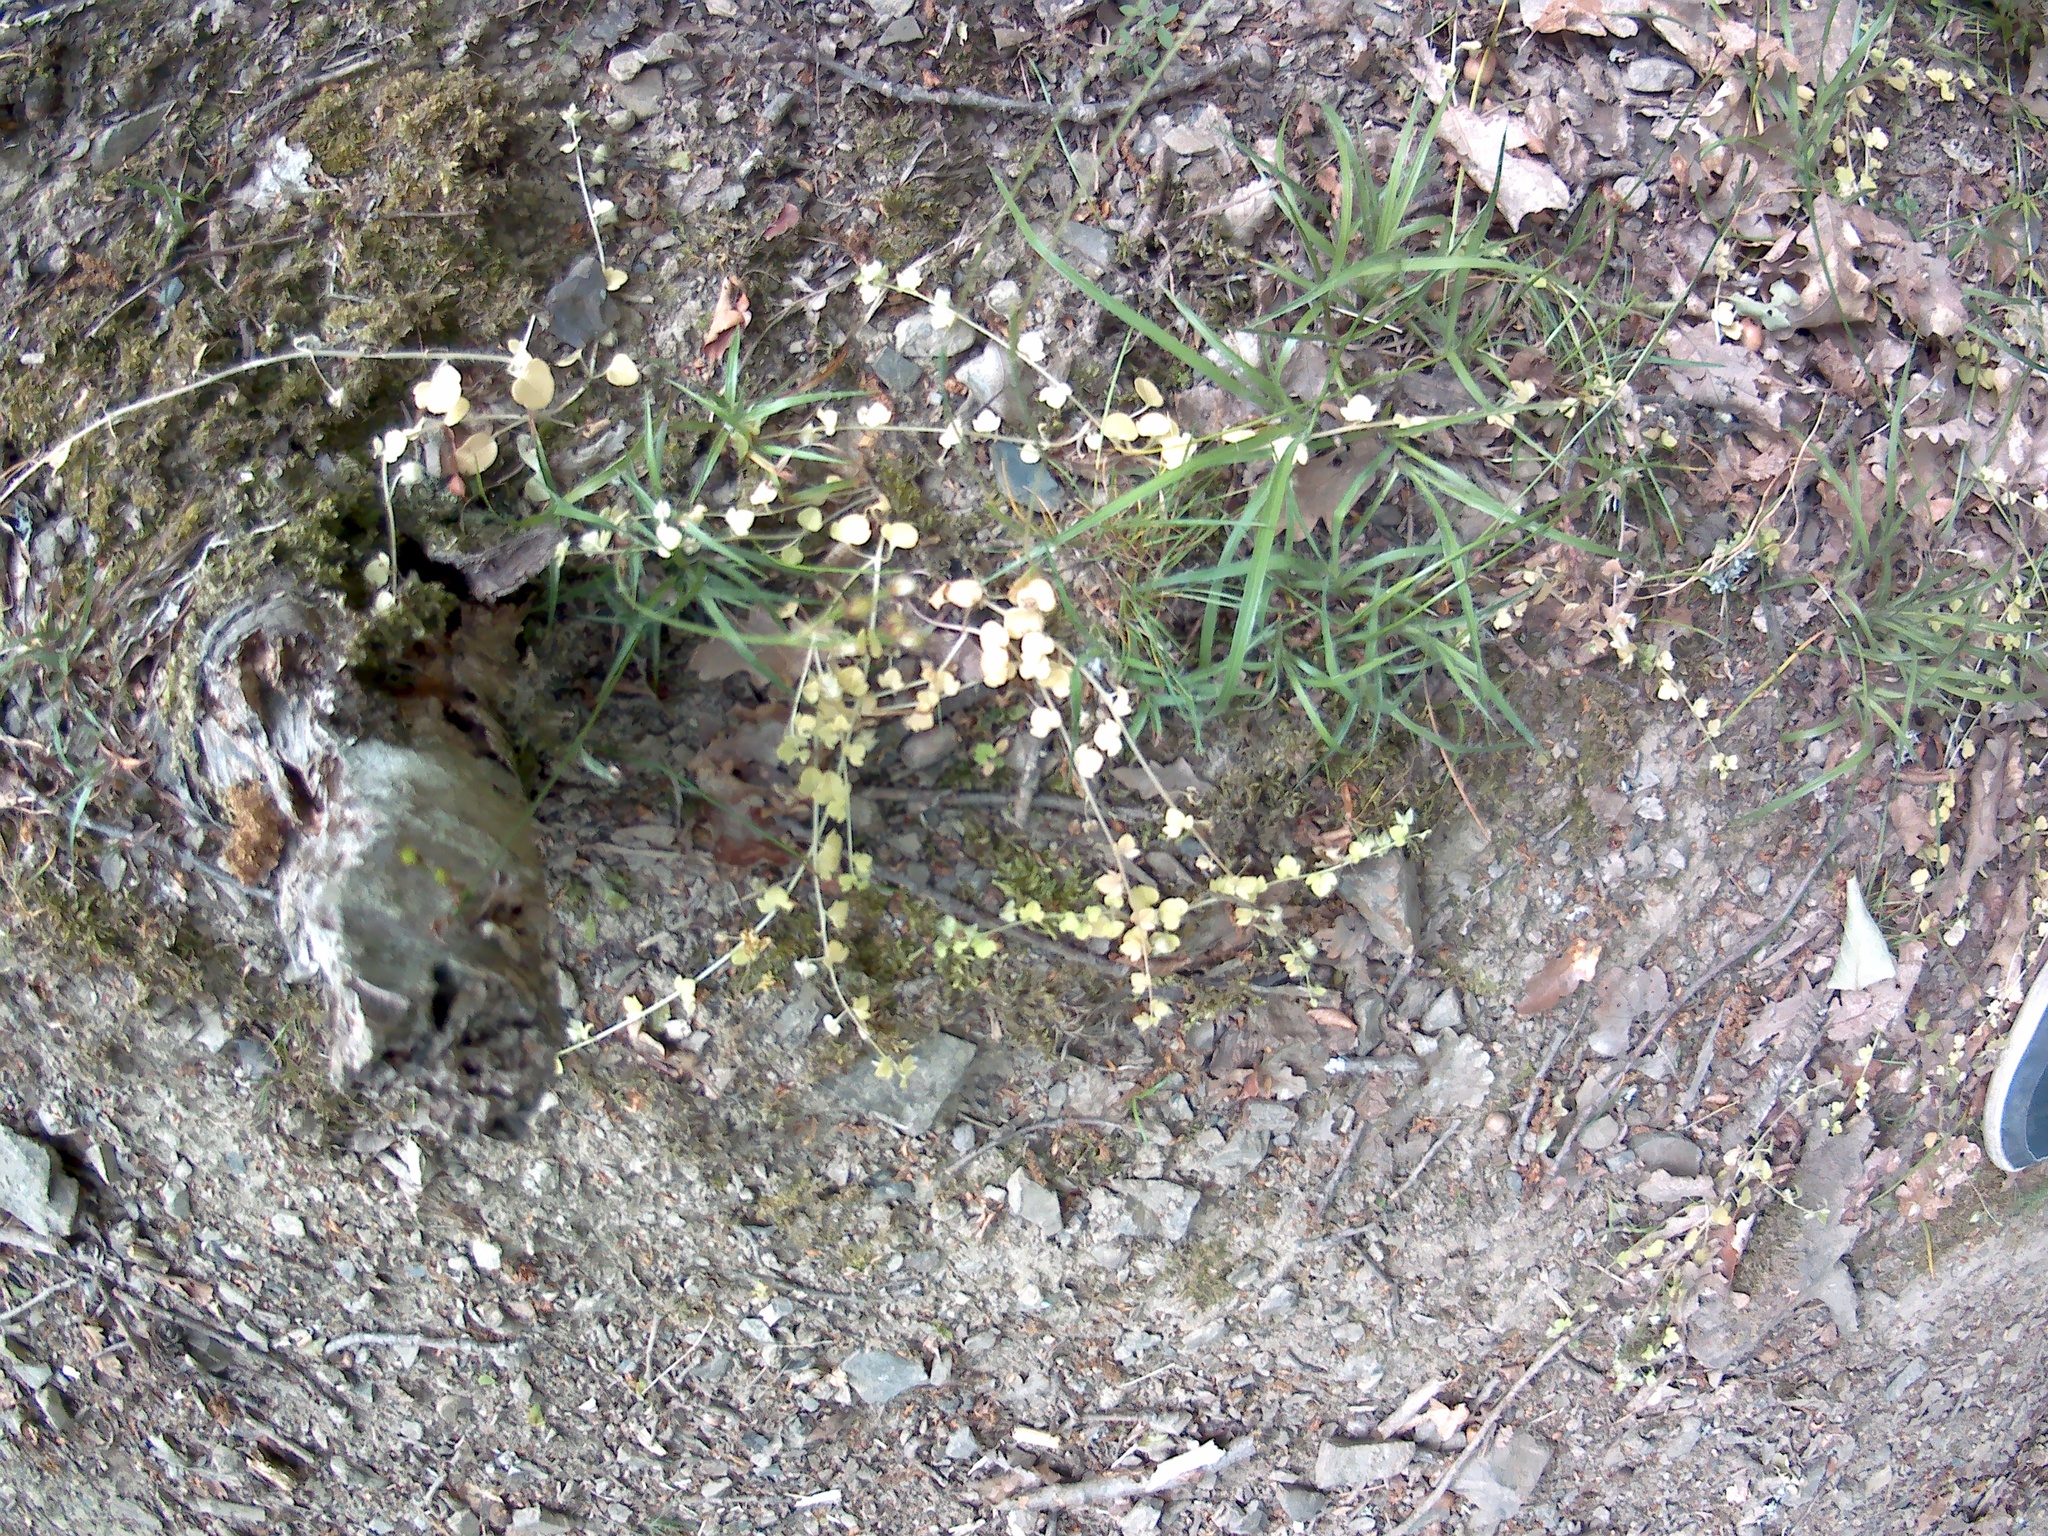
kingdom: Plantae
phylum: Tracheophyta
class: Magnoliopsida
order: Lamiales
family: Plantaginaceae
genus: Veronica
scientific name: Veronica hederifolia
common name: Ivy-leaved speedwell
